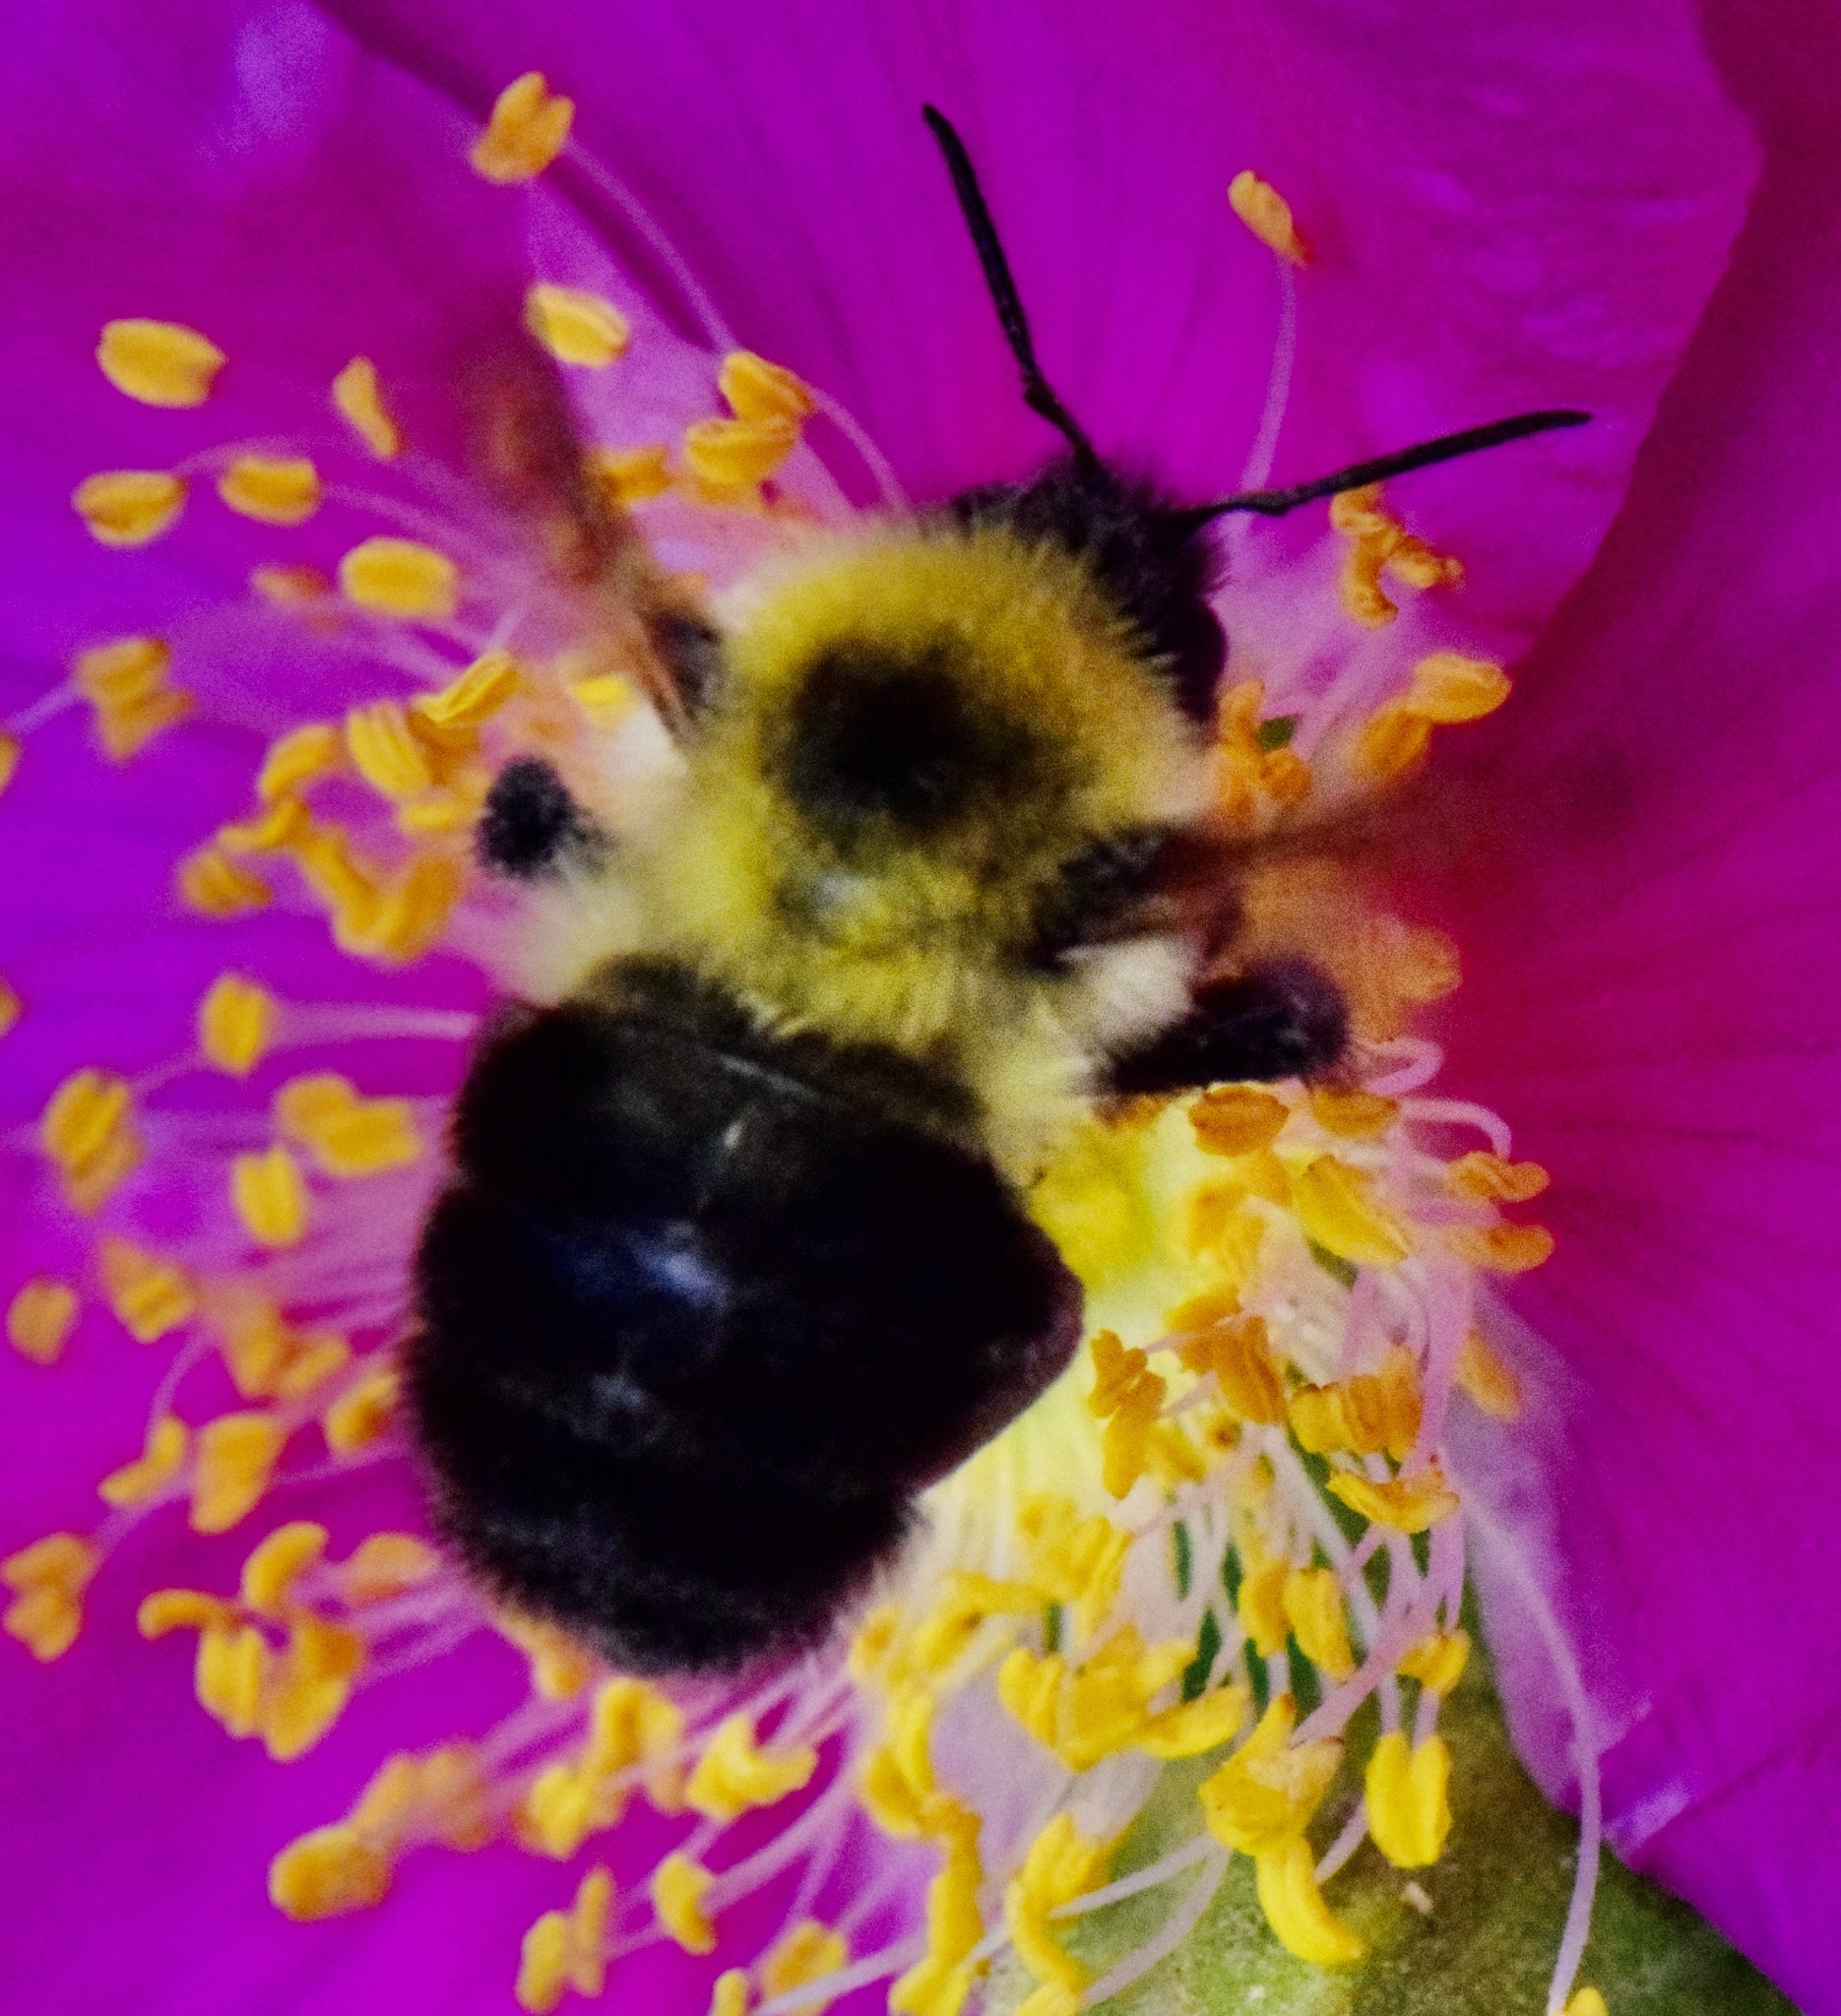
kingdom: Animalia
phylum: Arthropoda
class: Insecta
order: Hymenoptera
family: Apidae
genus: Bombus
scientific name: Bombus bimaculatus
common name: Two-spotted bumble bee
